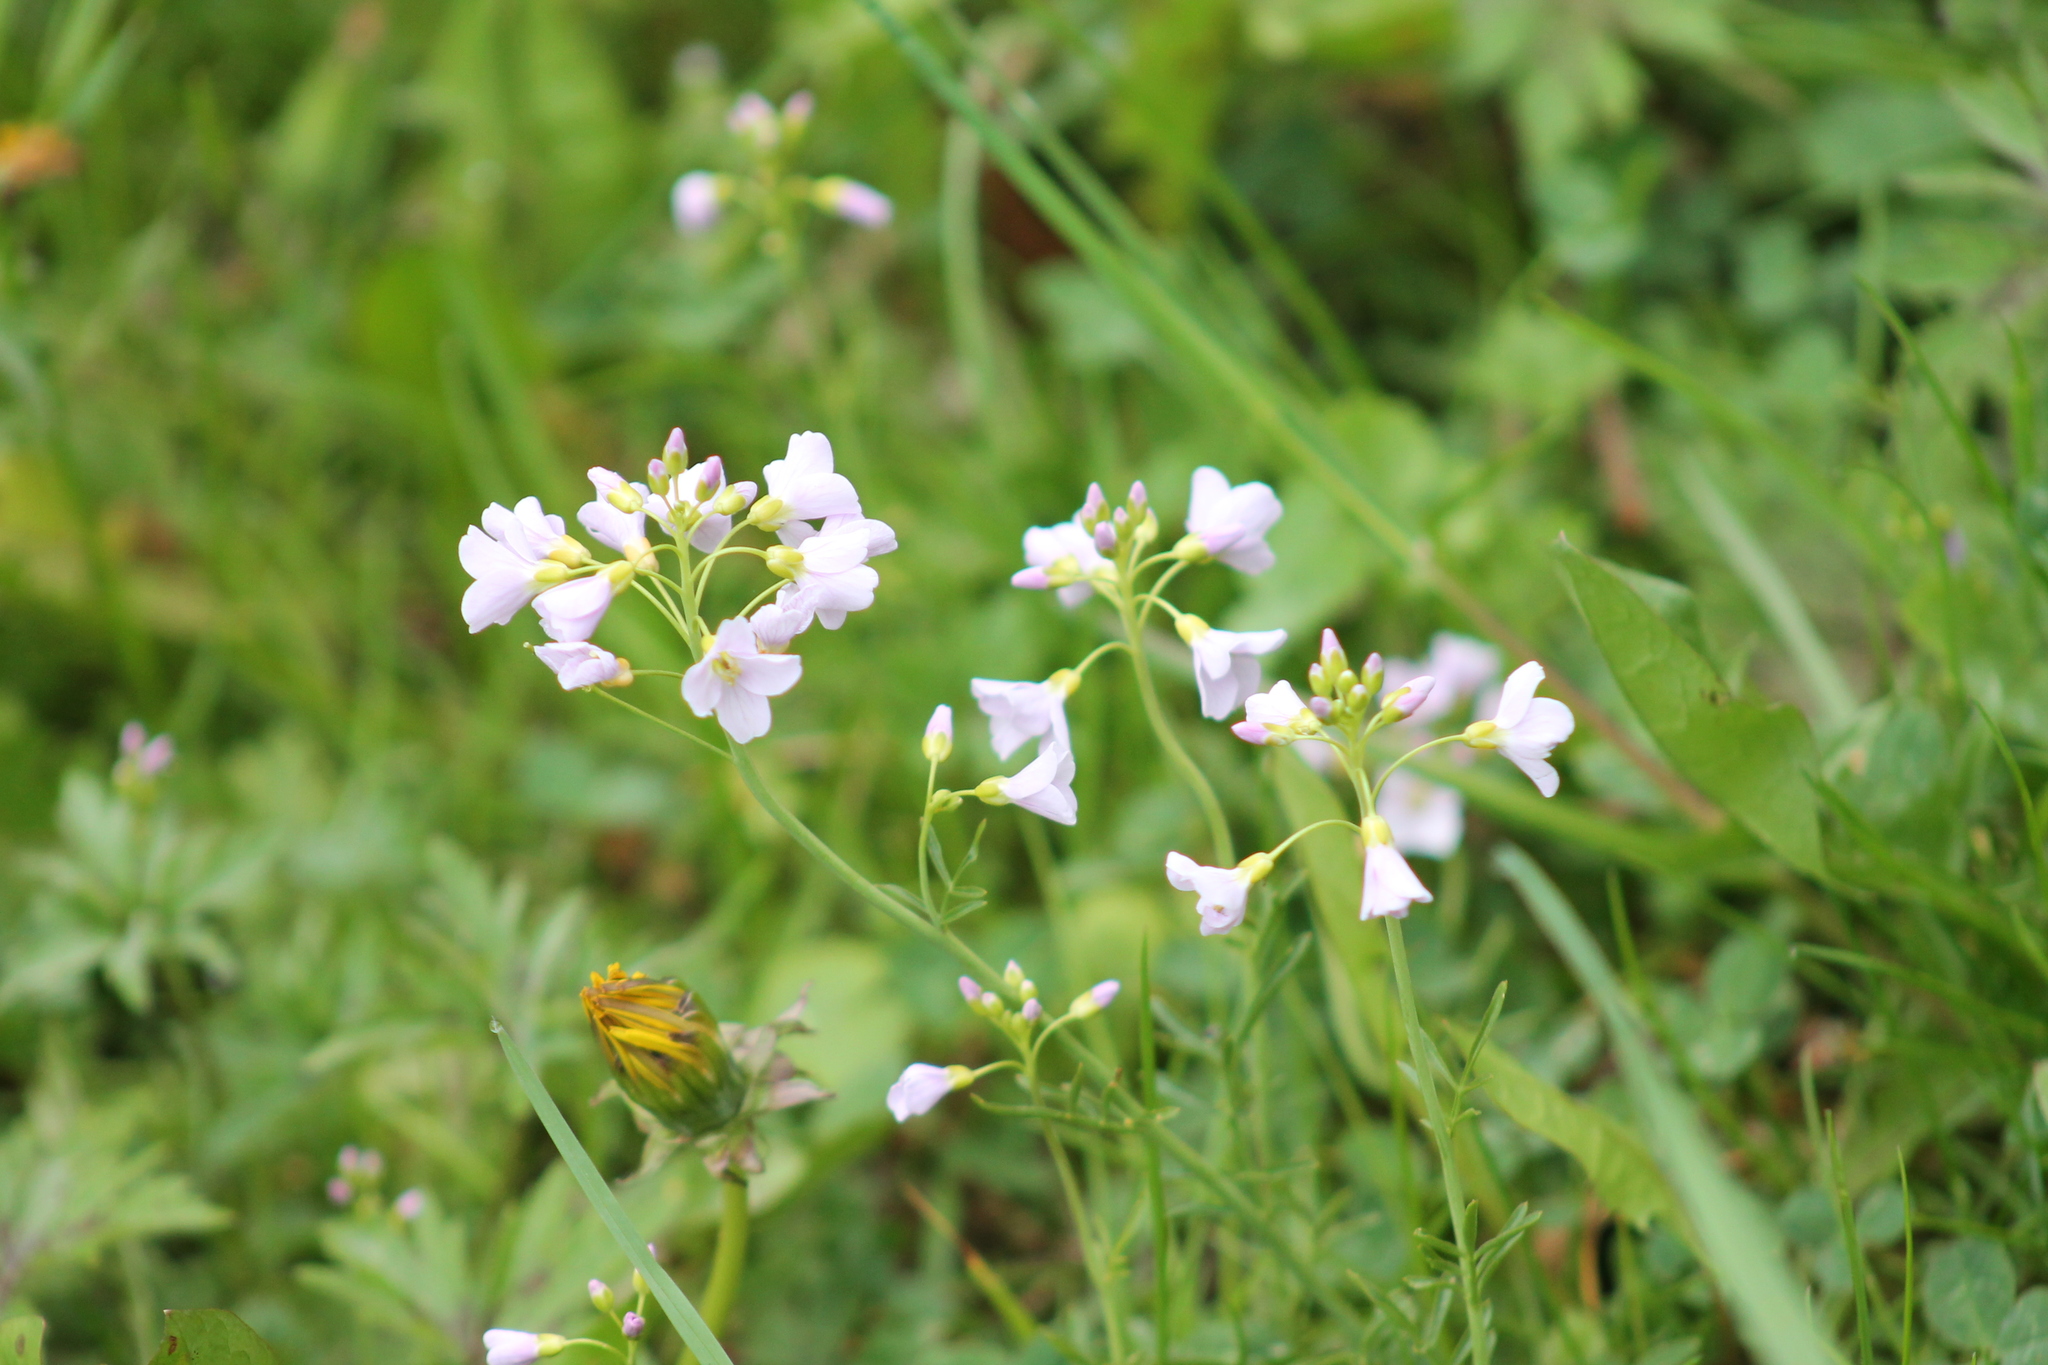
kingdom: Plantae
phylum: Tracheophyta
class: Magnoliopsida
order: Brassicales
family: Brassicaceae
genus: Cardamine
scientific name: Cardamine pratensis
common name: Cuckoo flower
